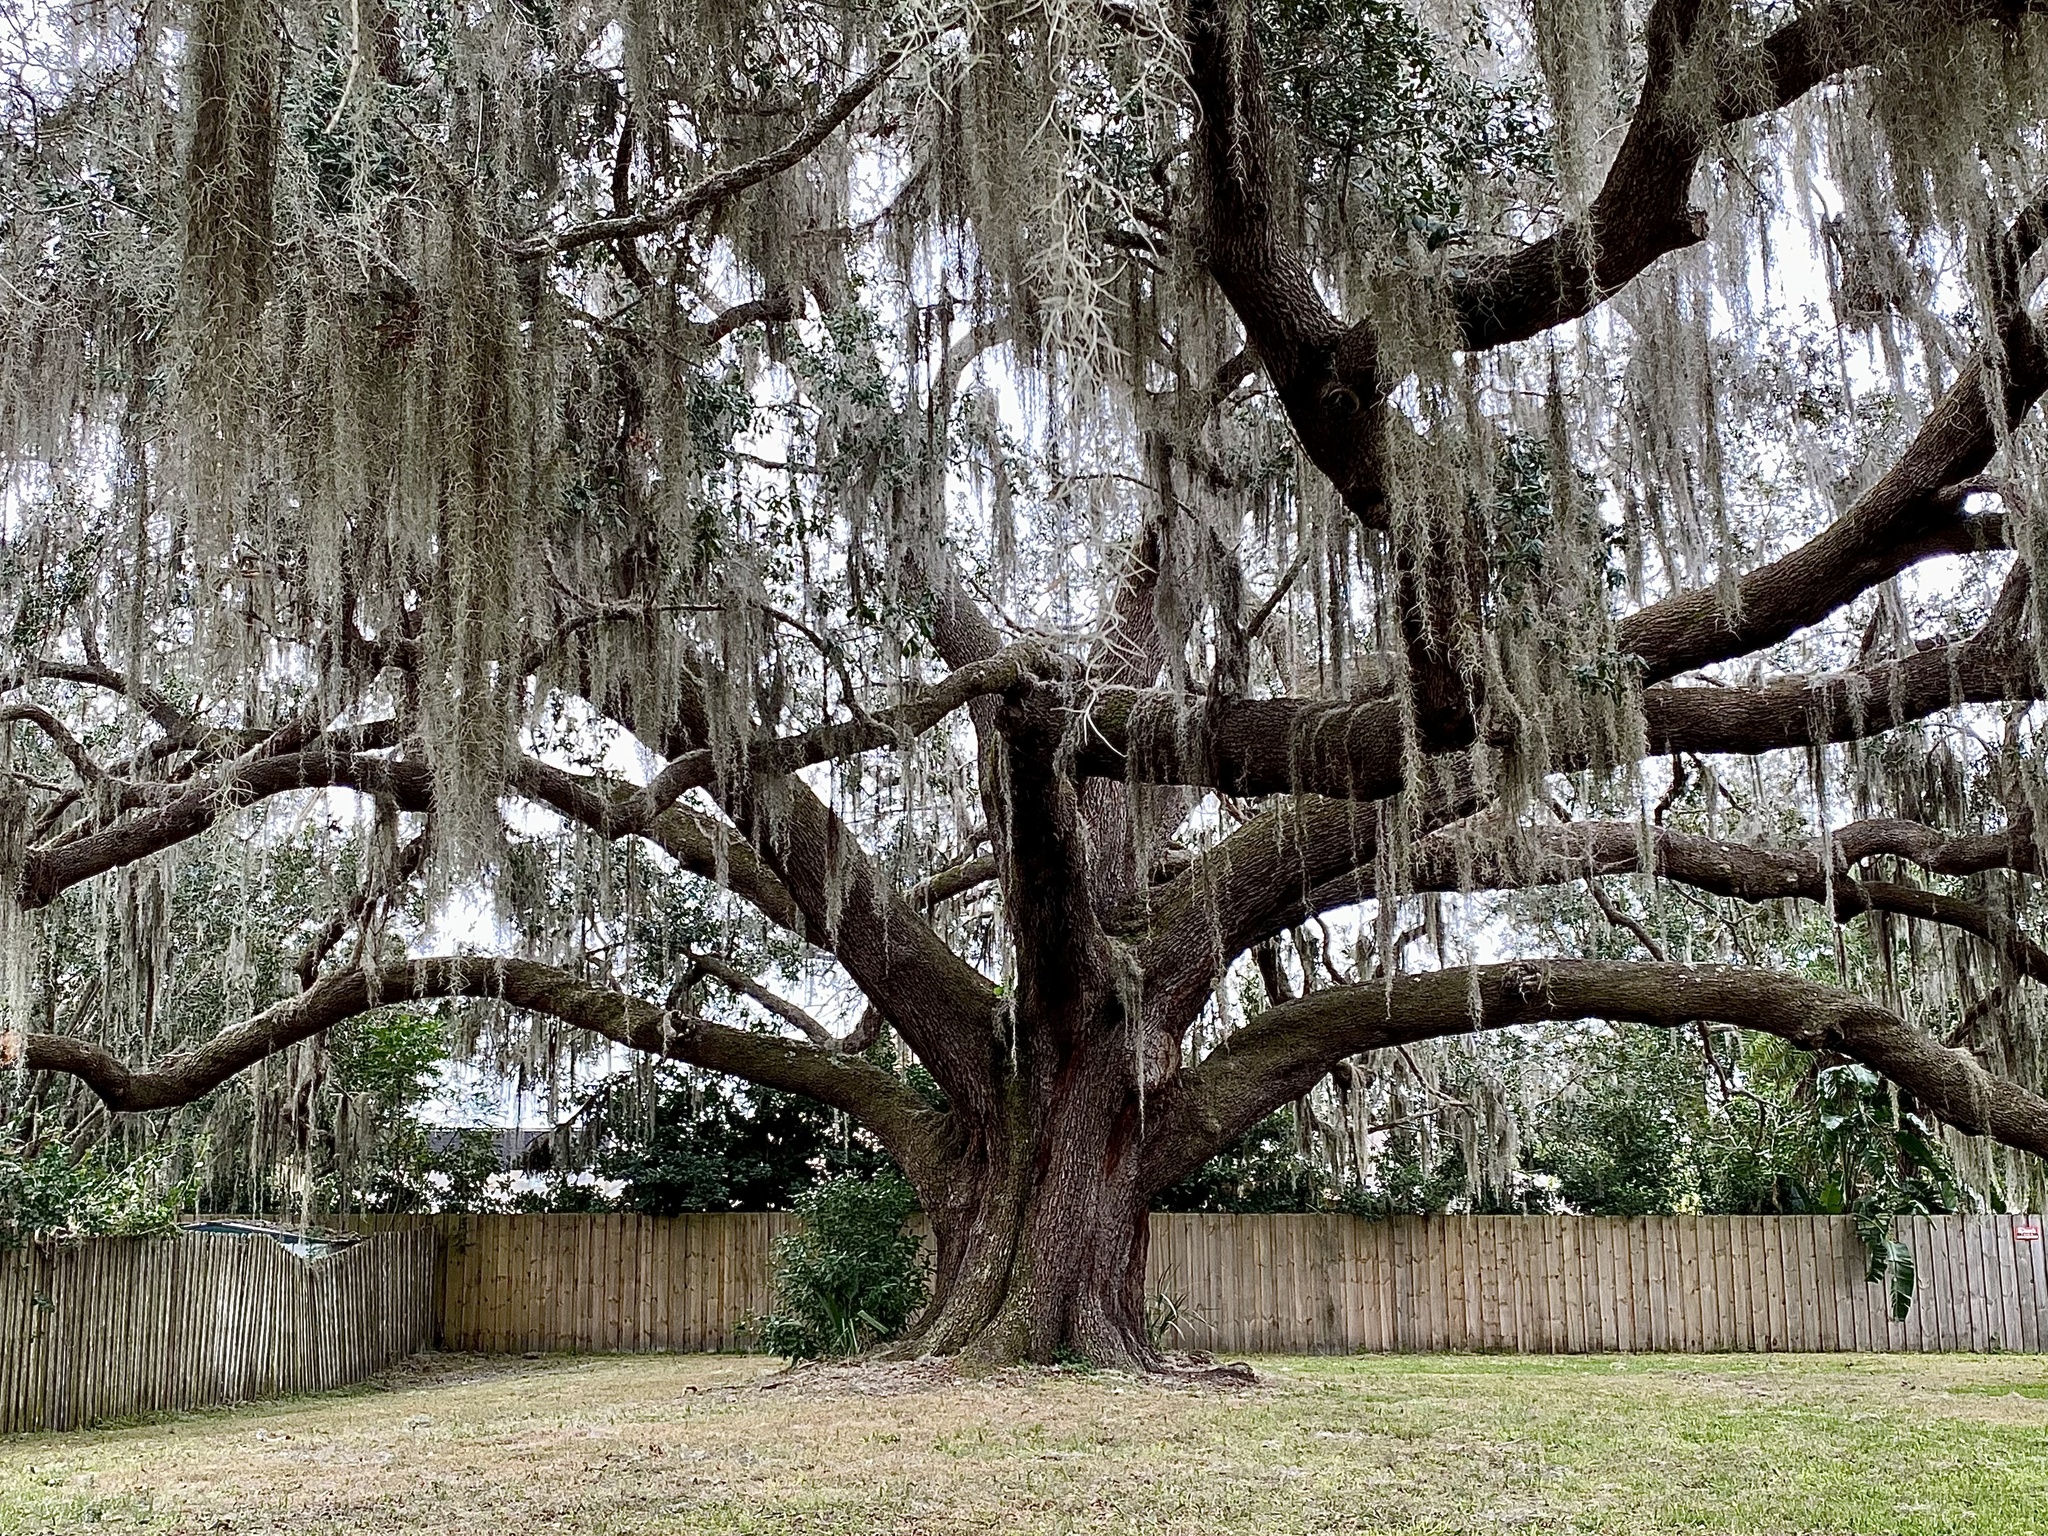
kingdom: Plantae
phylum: Tracheophyta
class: Magnoliopsida
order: Fagales
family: Fagaceae
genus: Quercus
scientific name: Quercus virginiana
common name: Southern live oak
